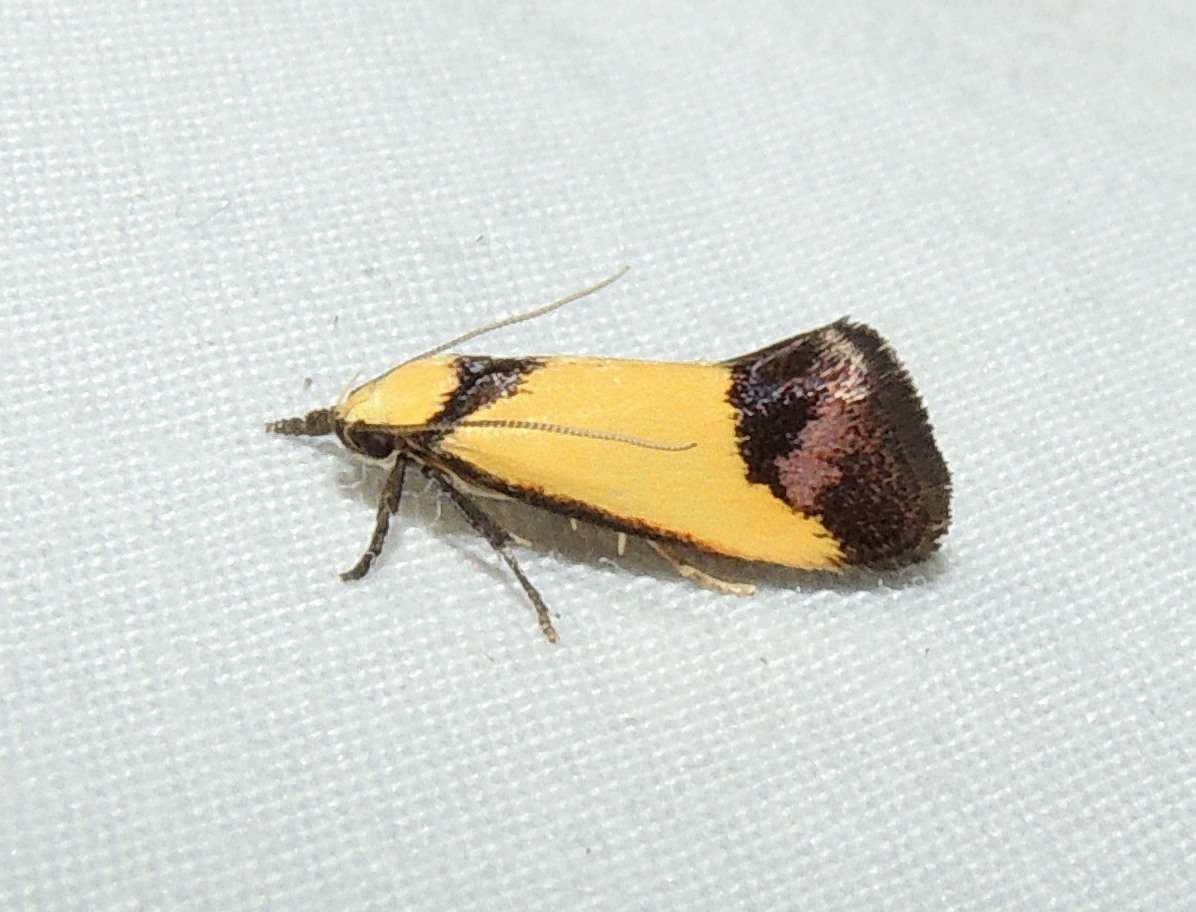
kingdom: Animalia
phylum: Arthropoda
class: Insecta
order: Lepidoptera
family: Oecophoridae
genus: Crepidosceles
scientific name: Crepidosceles timalphes
